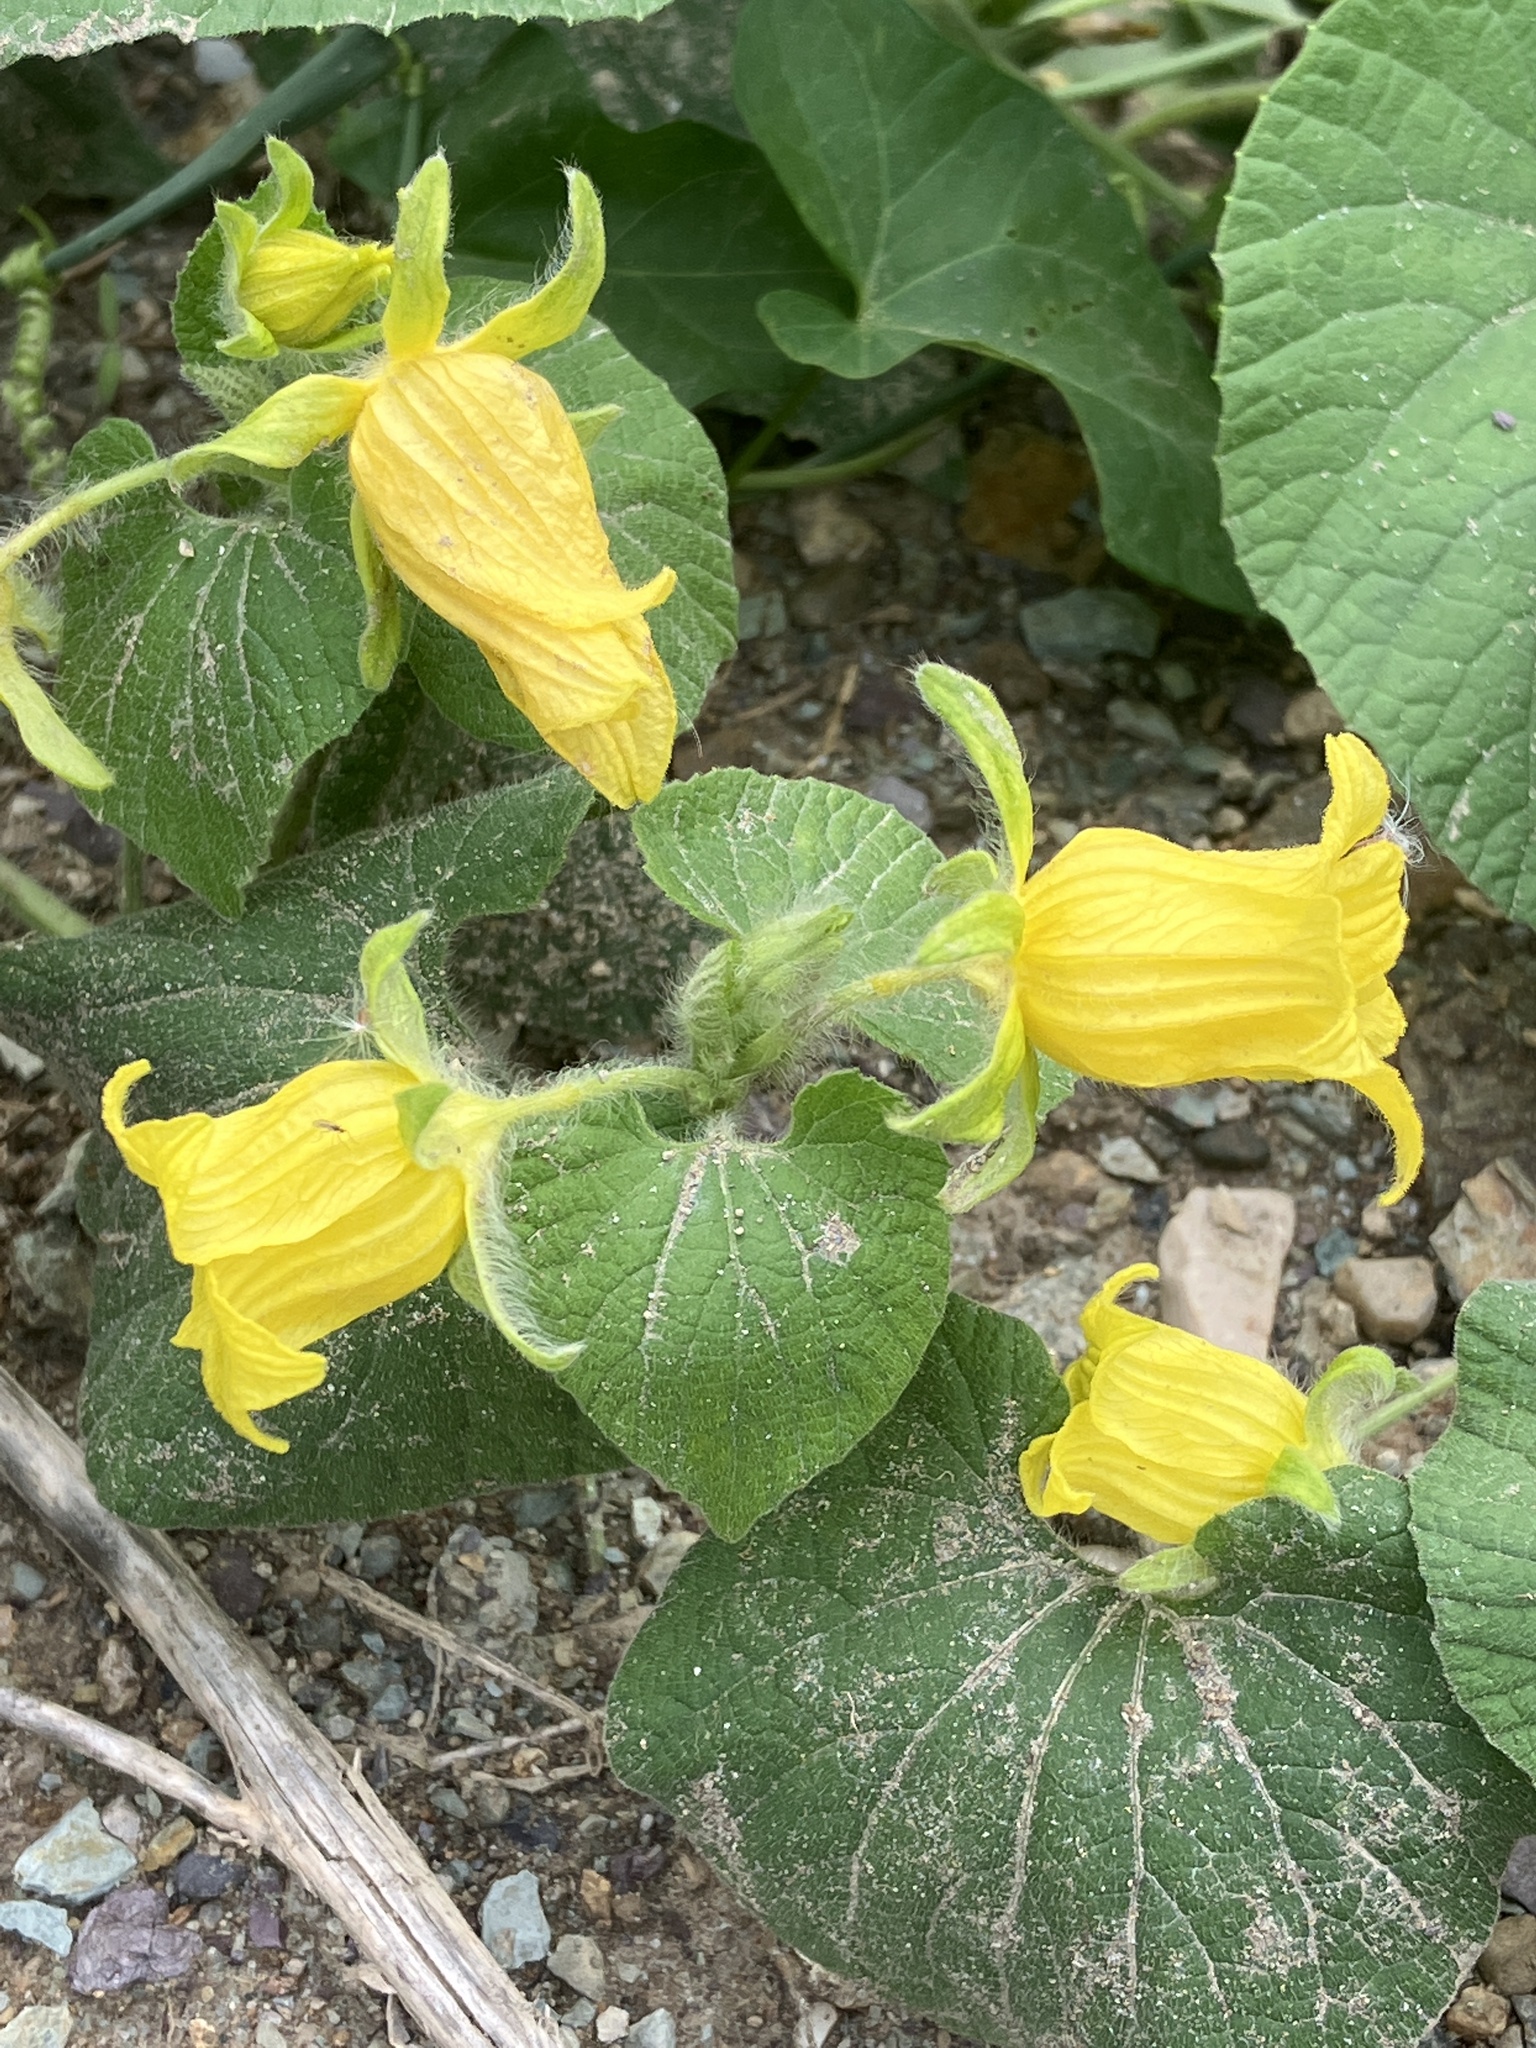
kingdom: Plantae
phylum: Tracheophyta
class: Magnoliopsida
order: Cucurbitales
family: Cucurbitaceae
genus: Thladiantha
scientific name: Thladiantha dubia
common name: Manchu tubergourd
